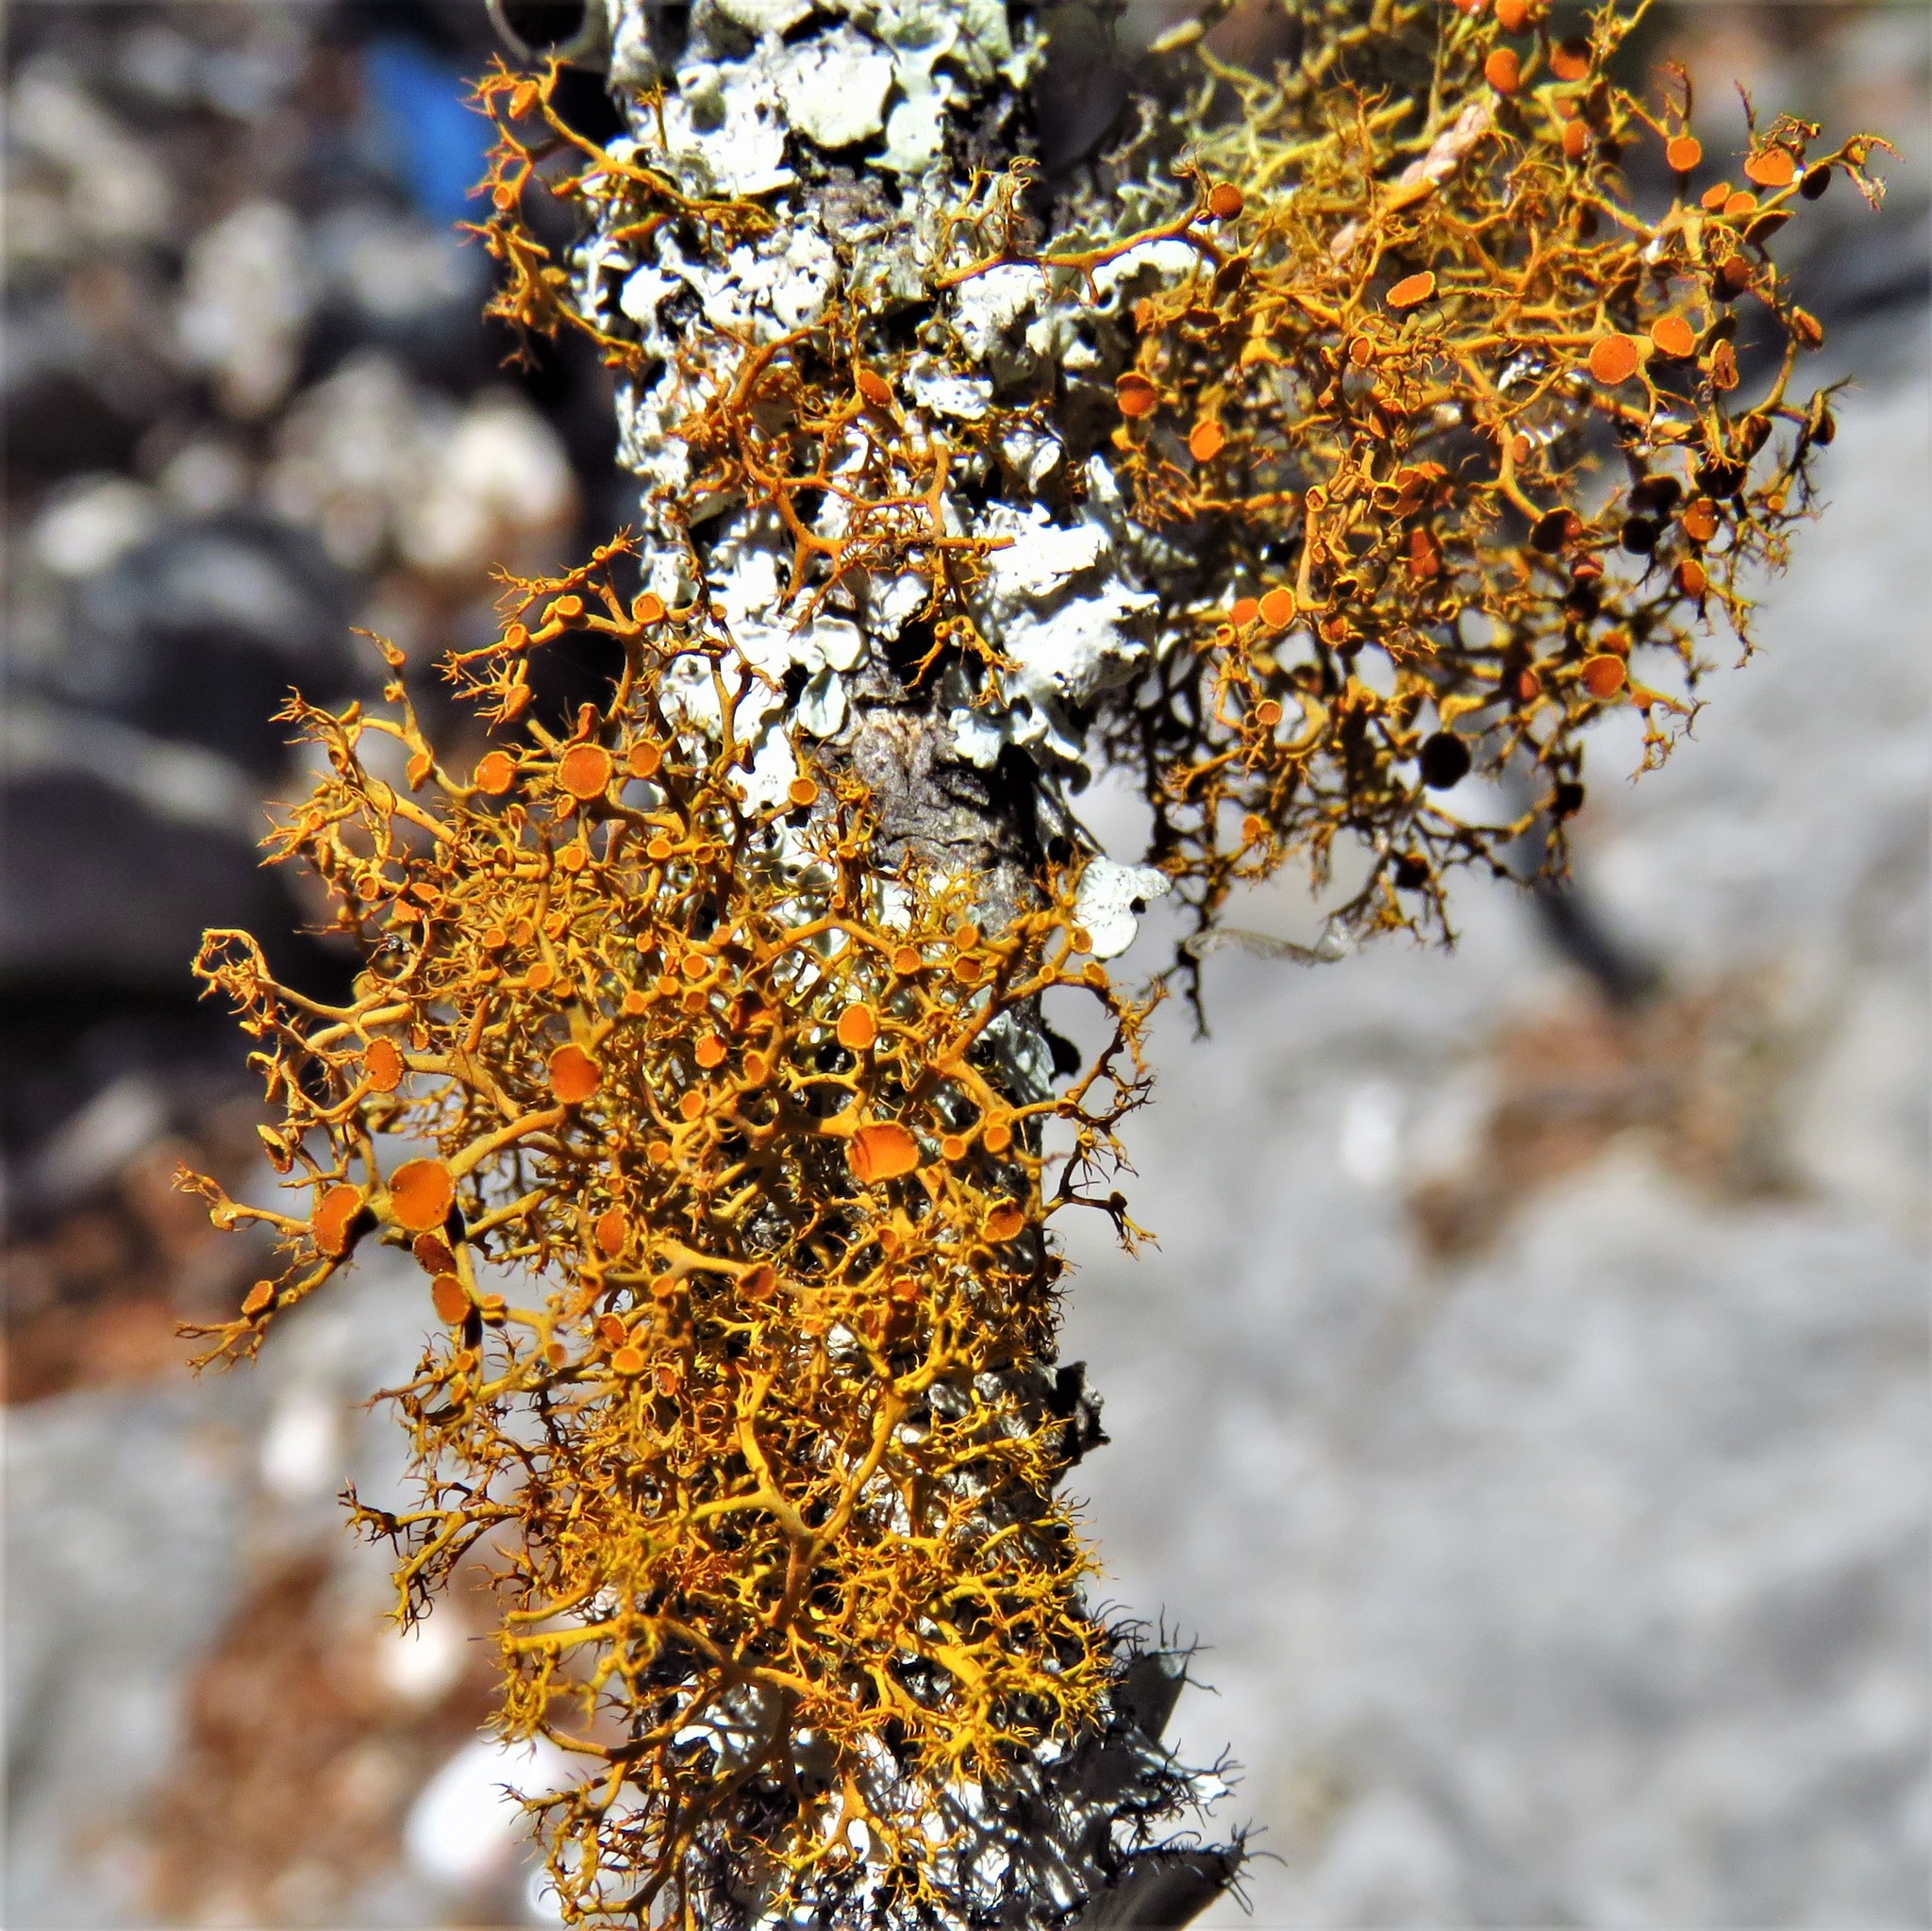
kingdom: Fungi
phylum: Ascomycota
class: Lecanoromycetes
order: Teloschistales
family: Teloschistaceae
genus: Teloschistes
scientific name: Teloschistes exilis
